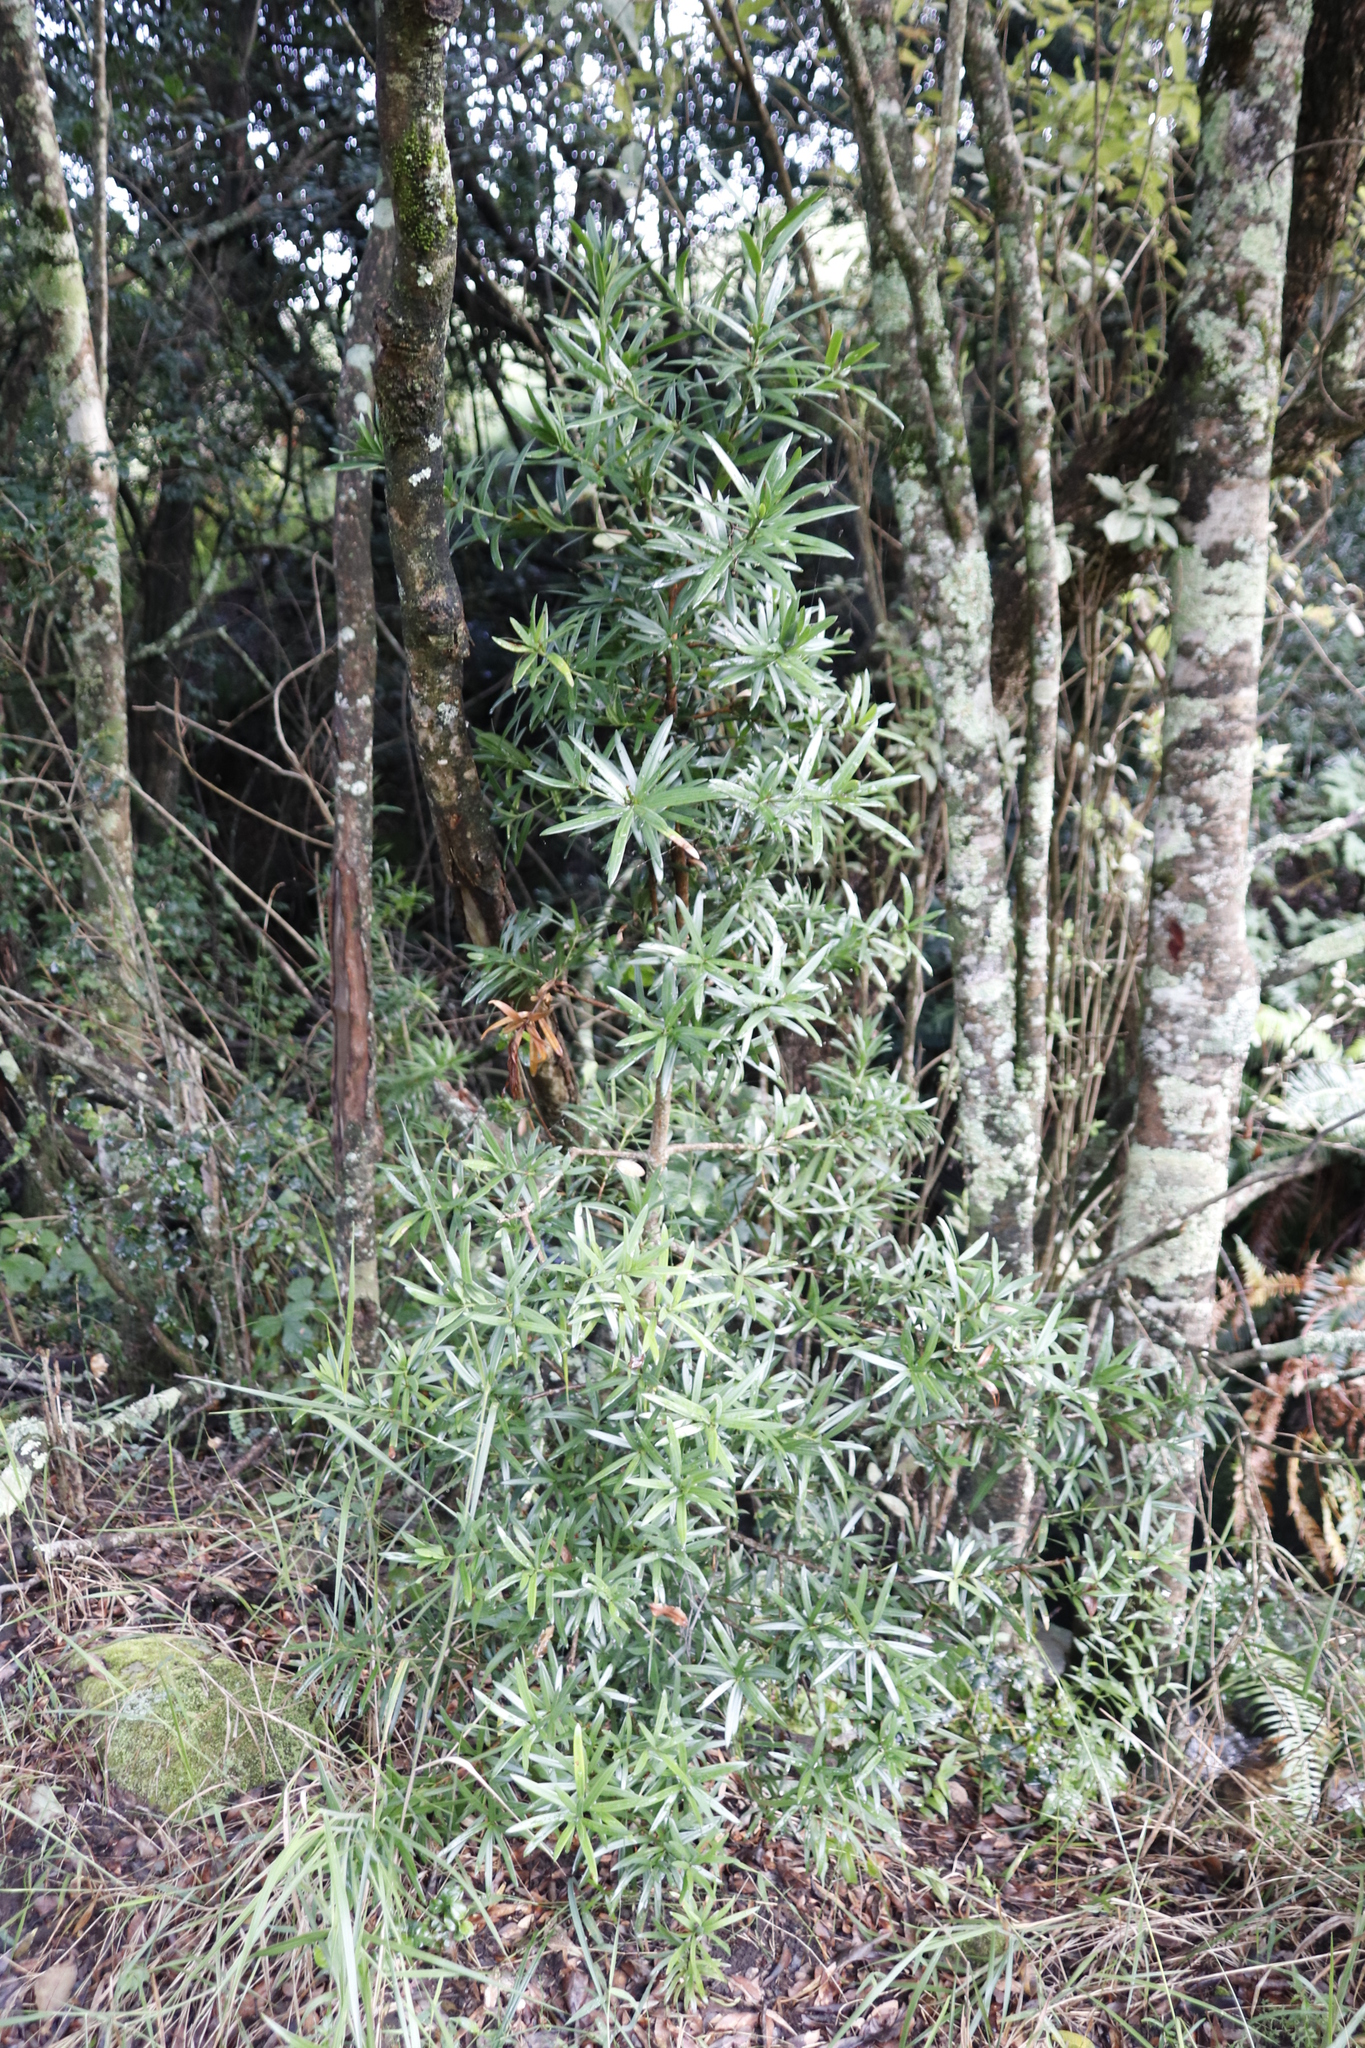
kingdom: Plantae
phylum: Tracheophyta
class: Pinopsida
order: Pinales
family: Podocarpaceae
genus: Podocarpus
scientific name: Podocarpus latifolius
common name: True yellowwood
